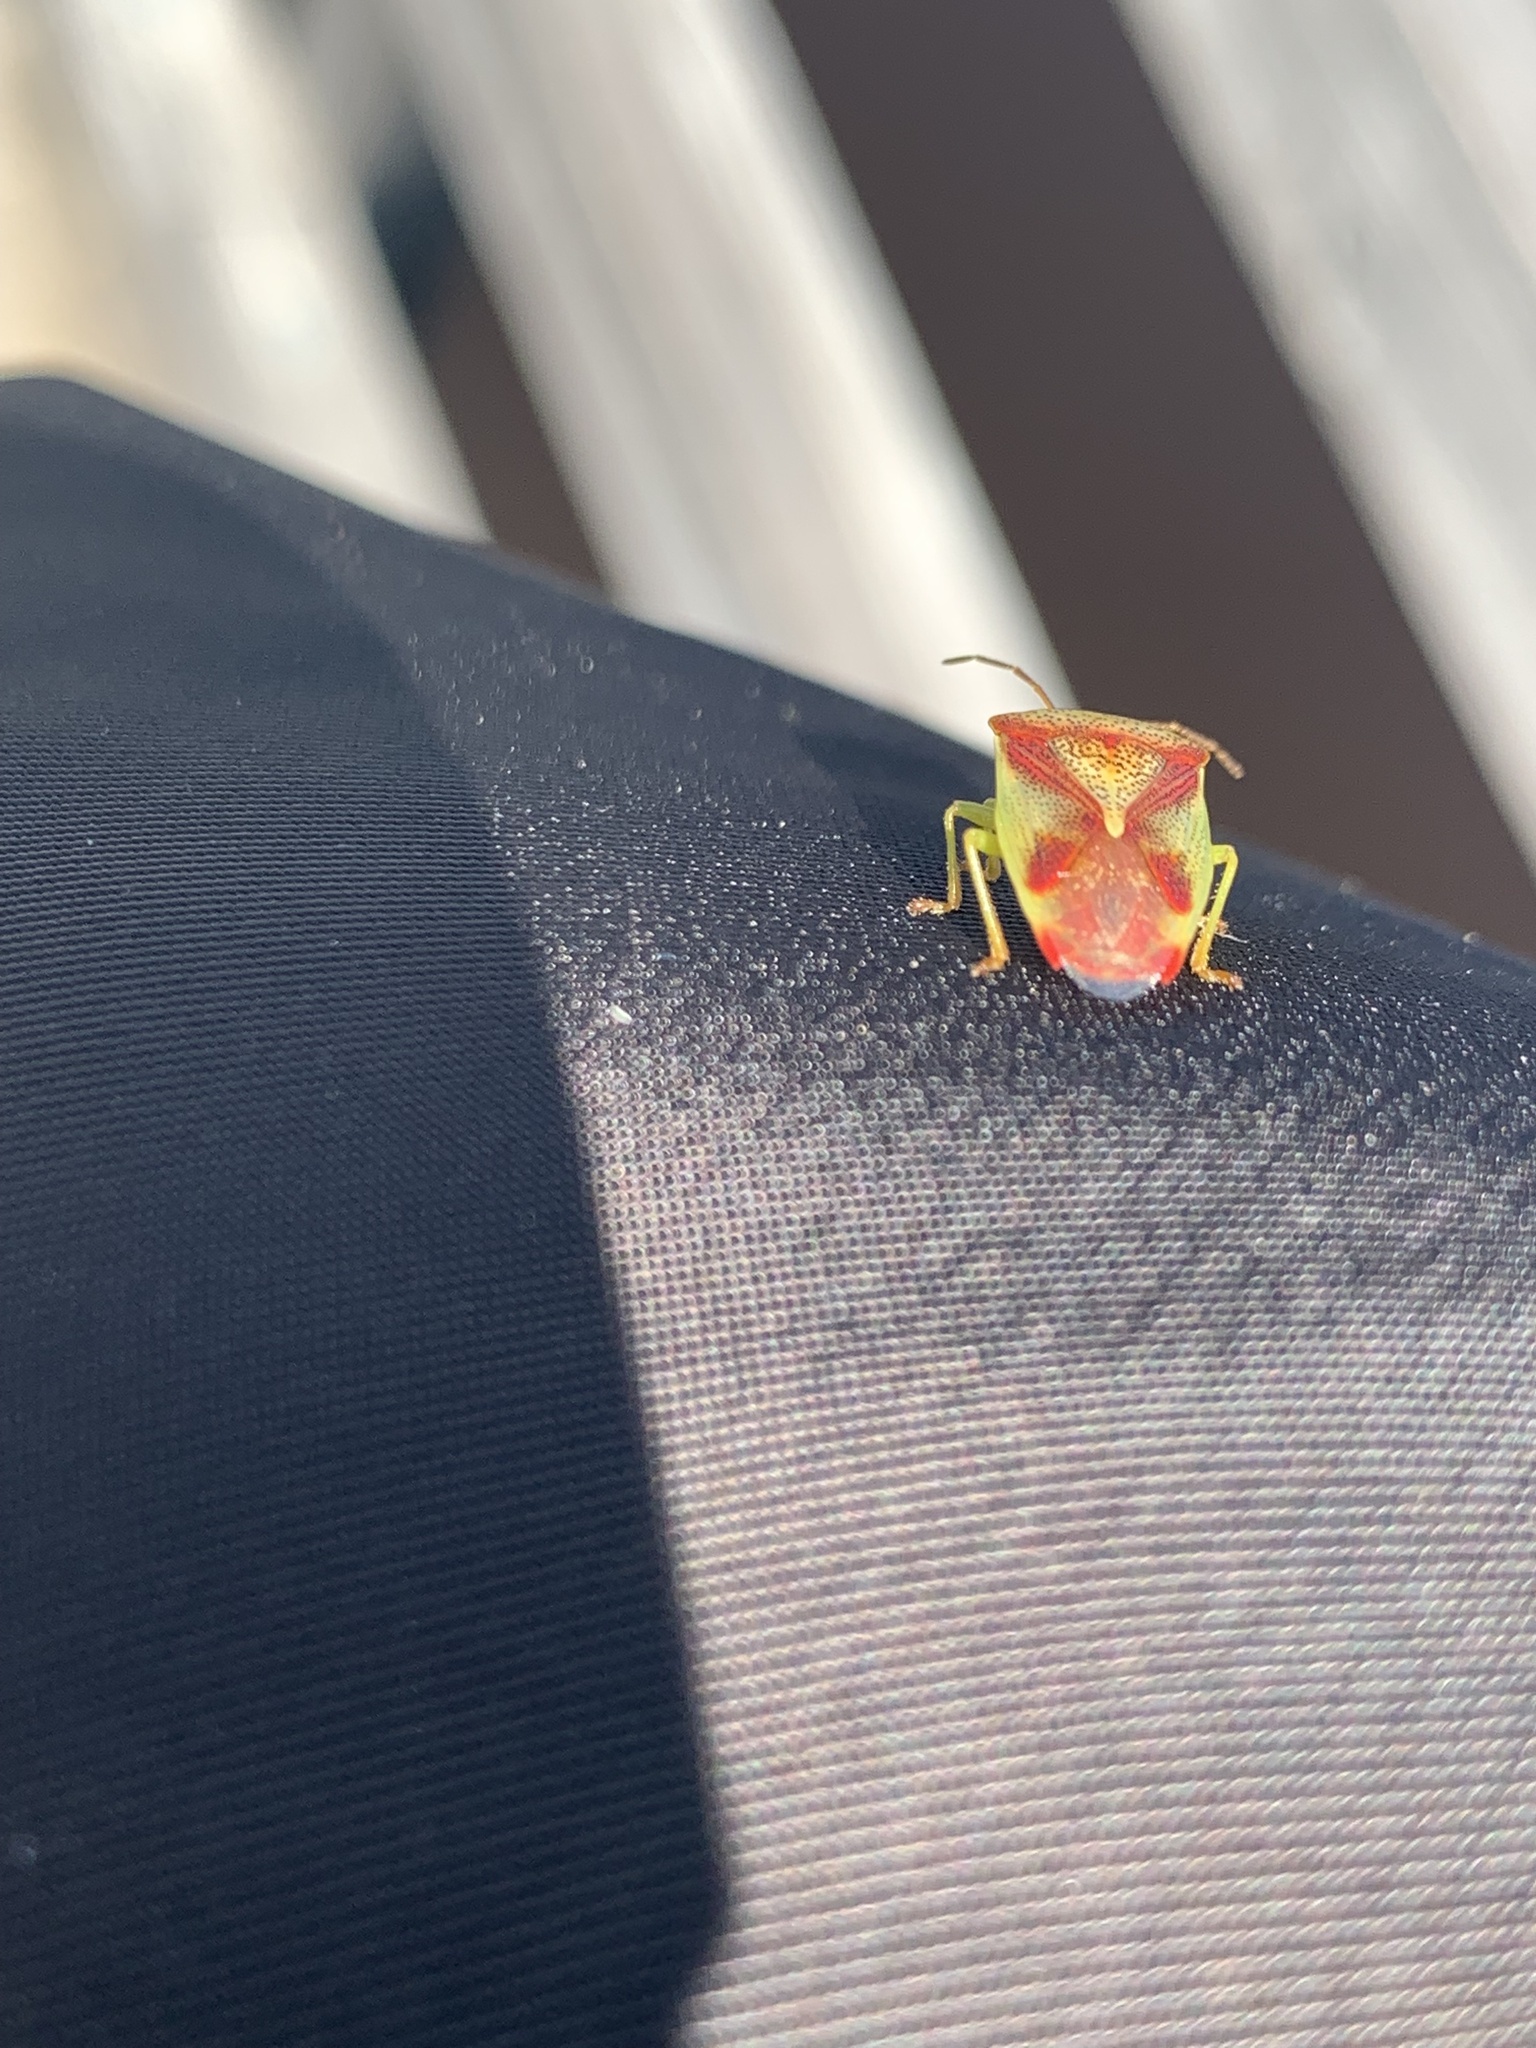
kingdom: Animalia
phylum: Arthropoda
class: Insecta
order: Hemiptera
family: Acanthosomatidae
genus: Elasmostethus
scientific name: Elasmostethus cruciatus
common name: Red-cross shield bug
